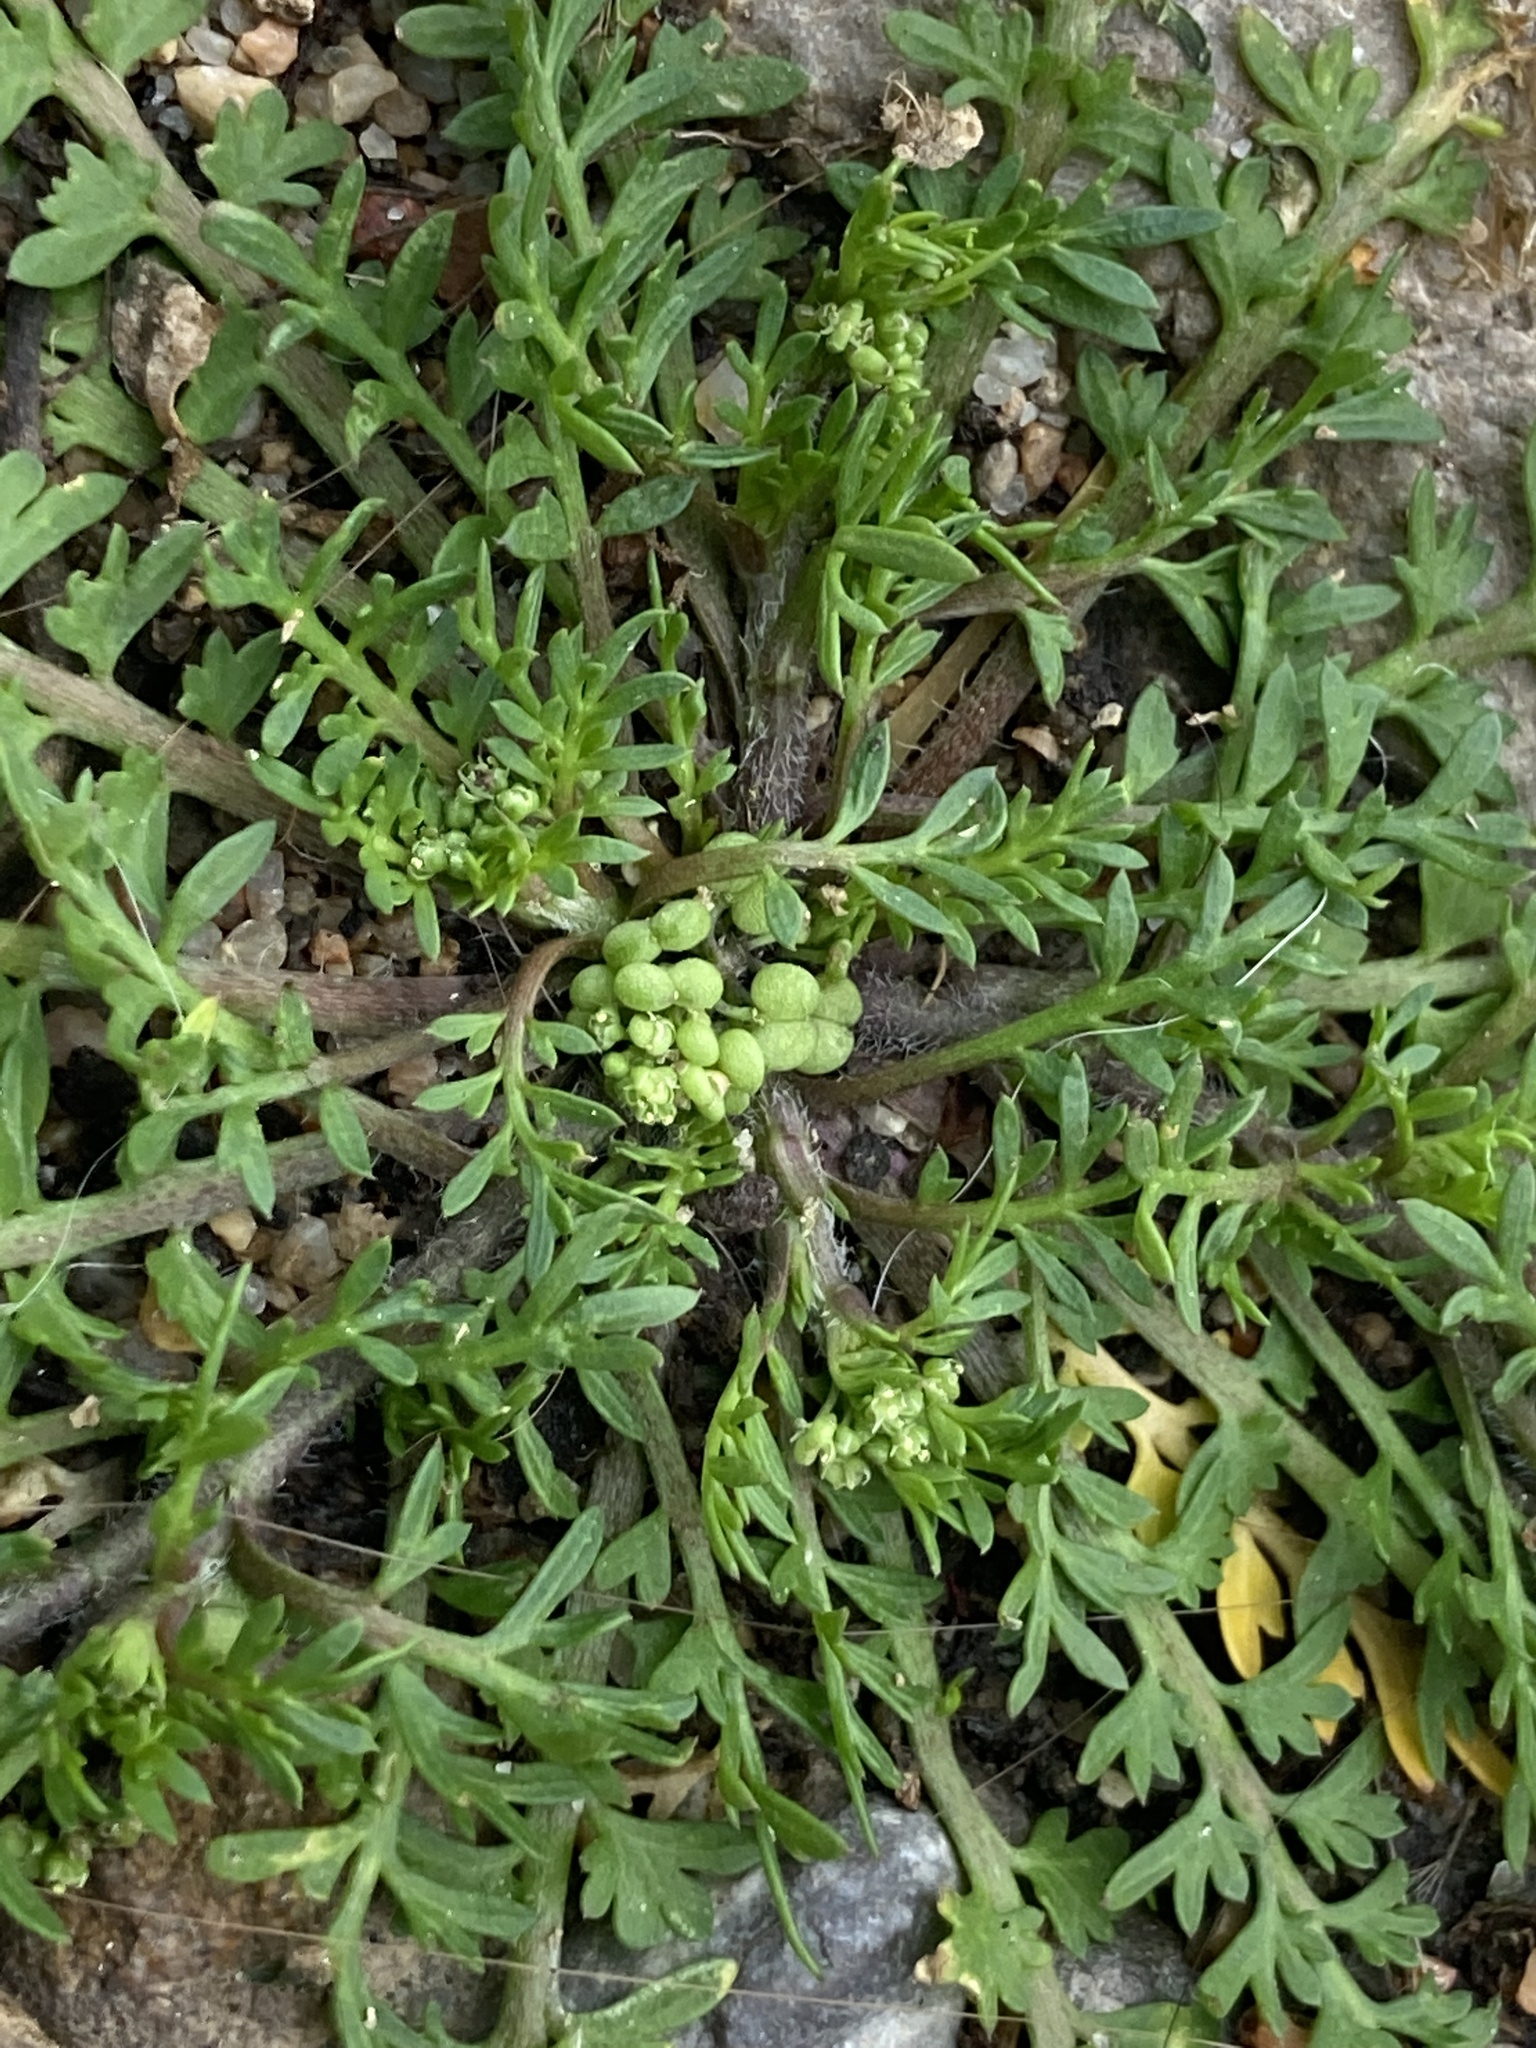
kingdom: Plantae
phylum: Tracheophyta
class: Magnoliopsida
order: Brassicales
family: Brassicaceae
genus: Lepidium
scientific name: Lepidium didymum
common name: Lesser swinecress
